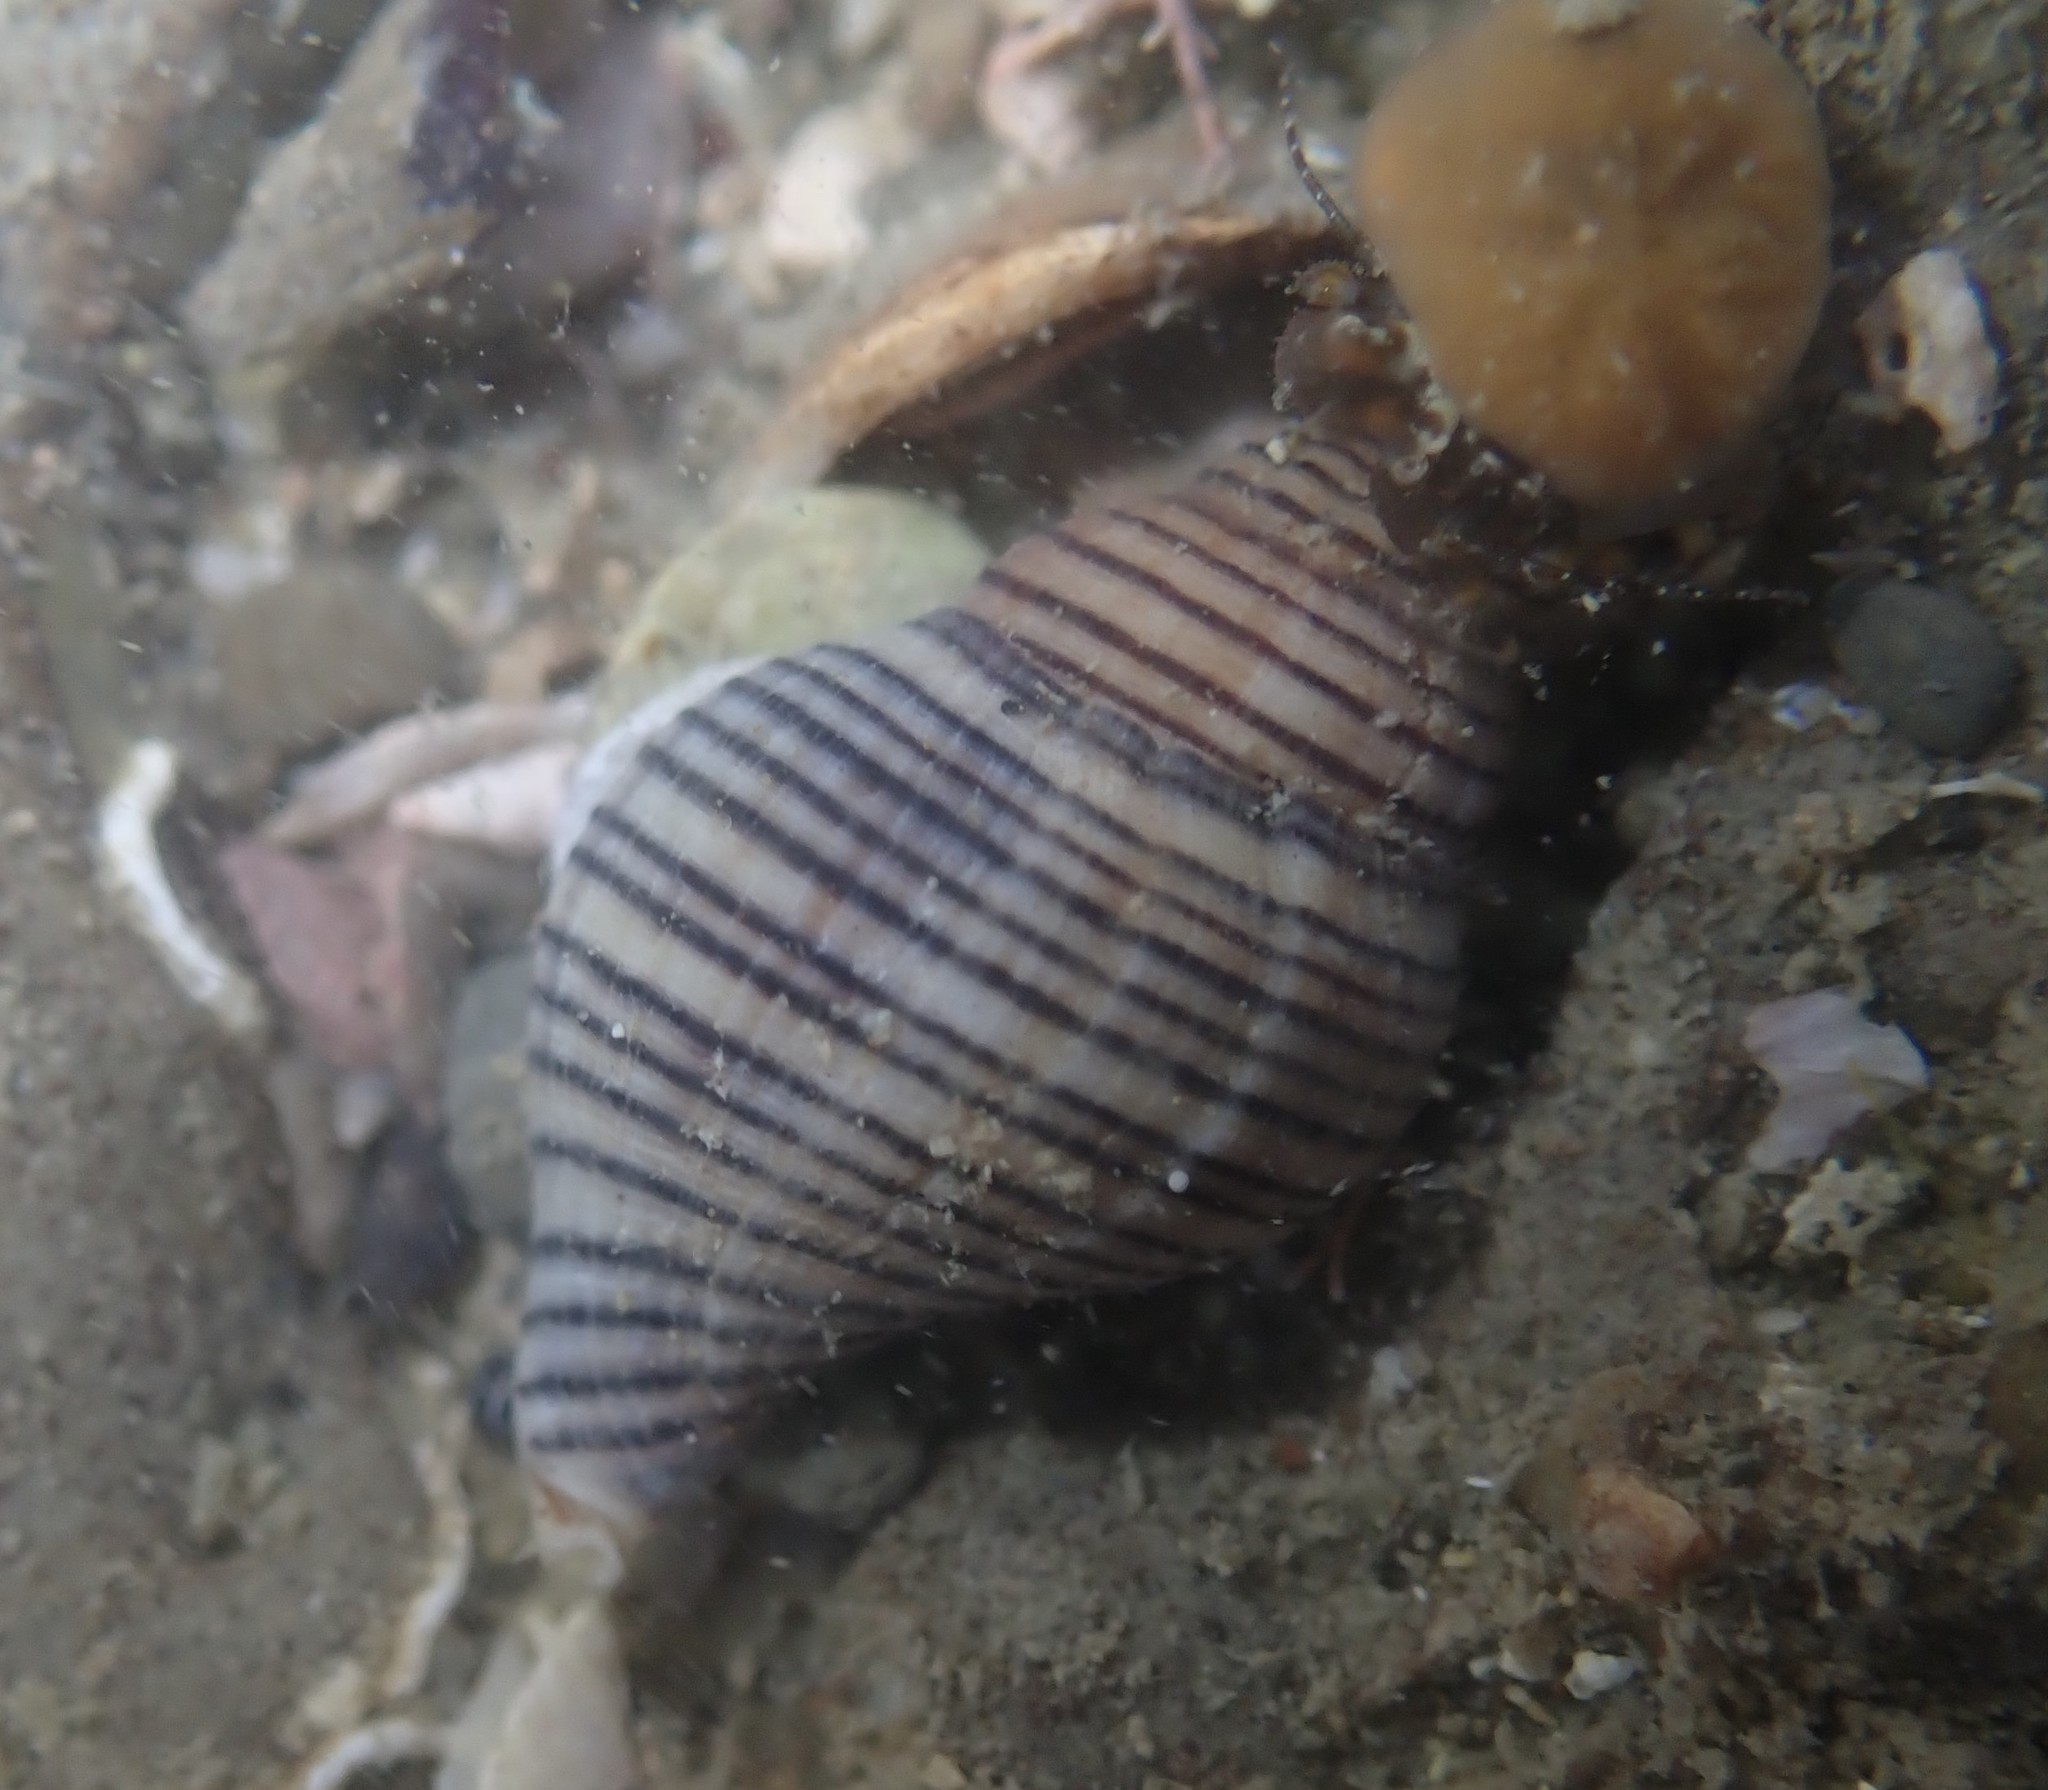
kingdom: Animalia
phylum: Mollusca
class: Gastropoda
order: Neogastropoda
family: Tudiclidae
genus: Buccinulum
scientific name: Buccinulum linea
